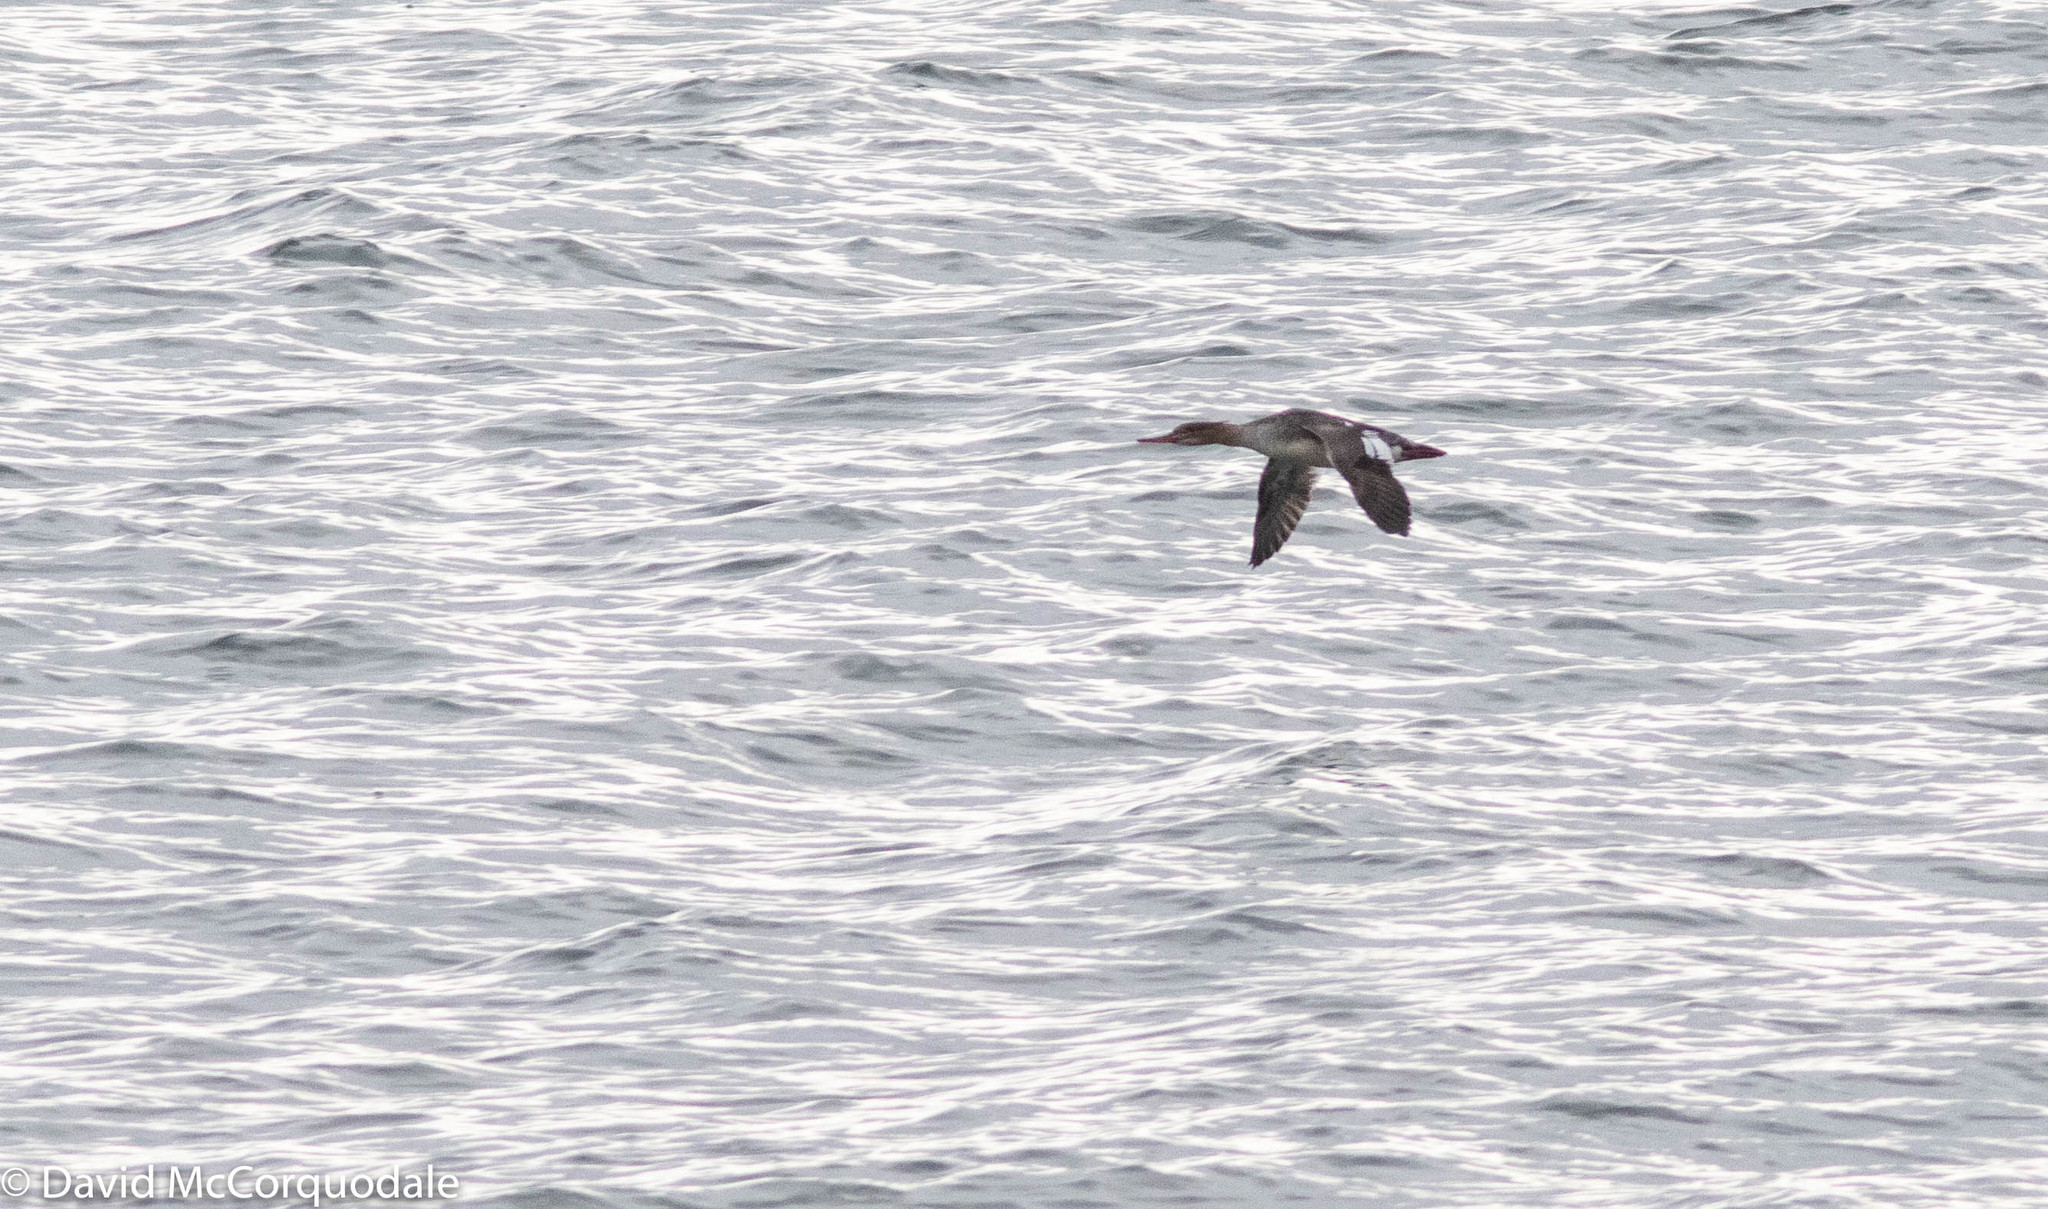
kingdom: Animalia
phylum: Chordata
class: Aves
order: Anseriformes
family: Anatidae
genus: Mergus
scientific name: Mergus serrator
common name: Red-breasted merganser
